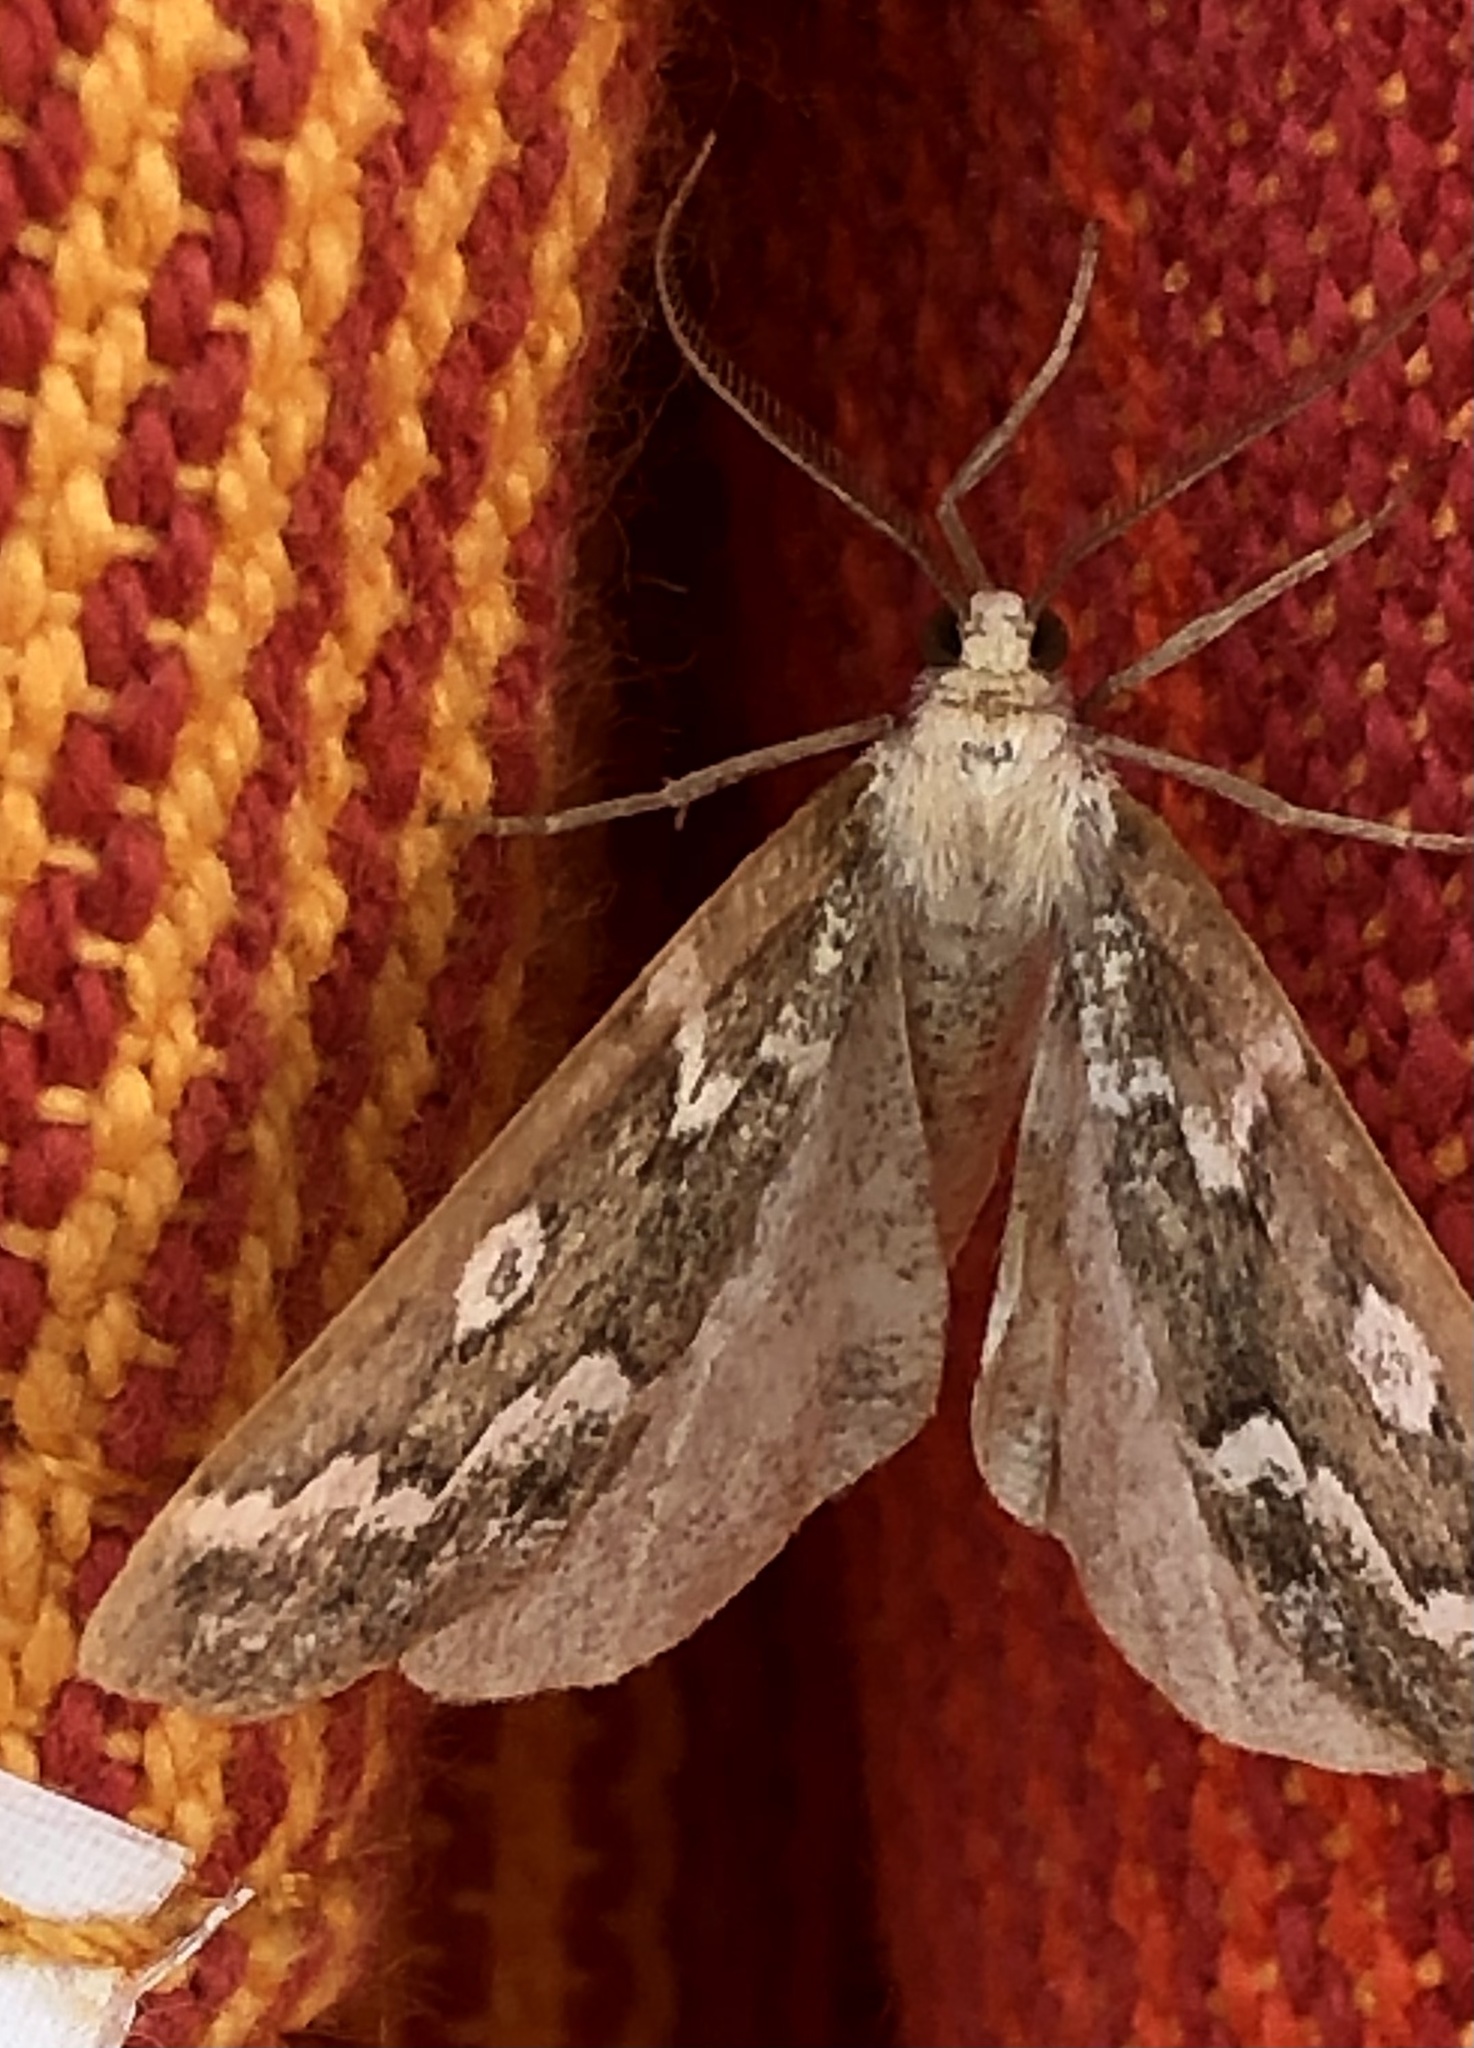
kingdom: Animalia
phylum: Arthropoda
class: Insecta
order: Lepidoptera
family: Geometridae
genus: Caripeta
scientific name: Caripeta divisata
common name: Gray spruce looper
